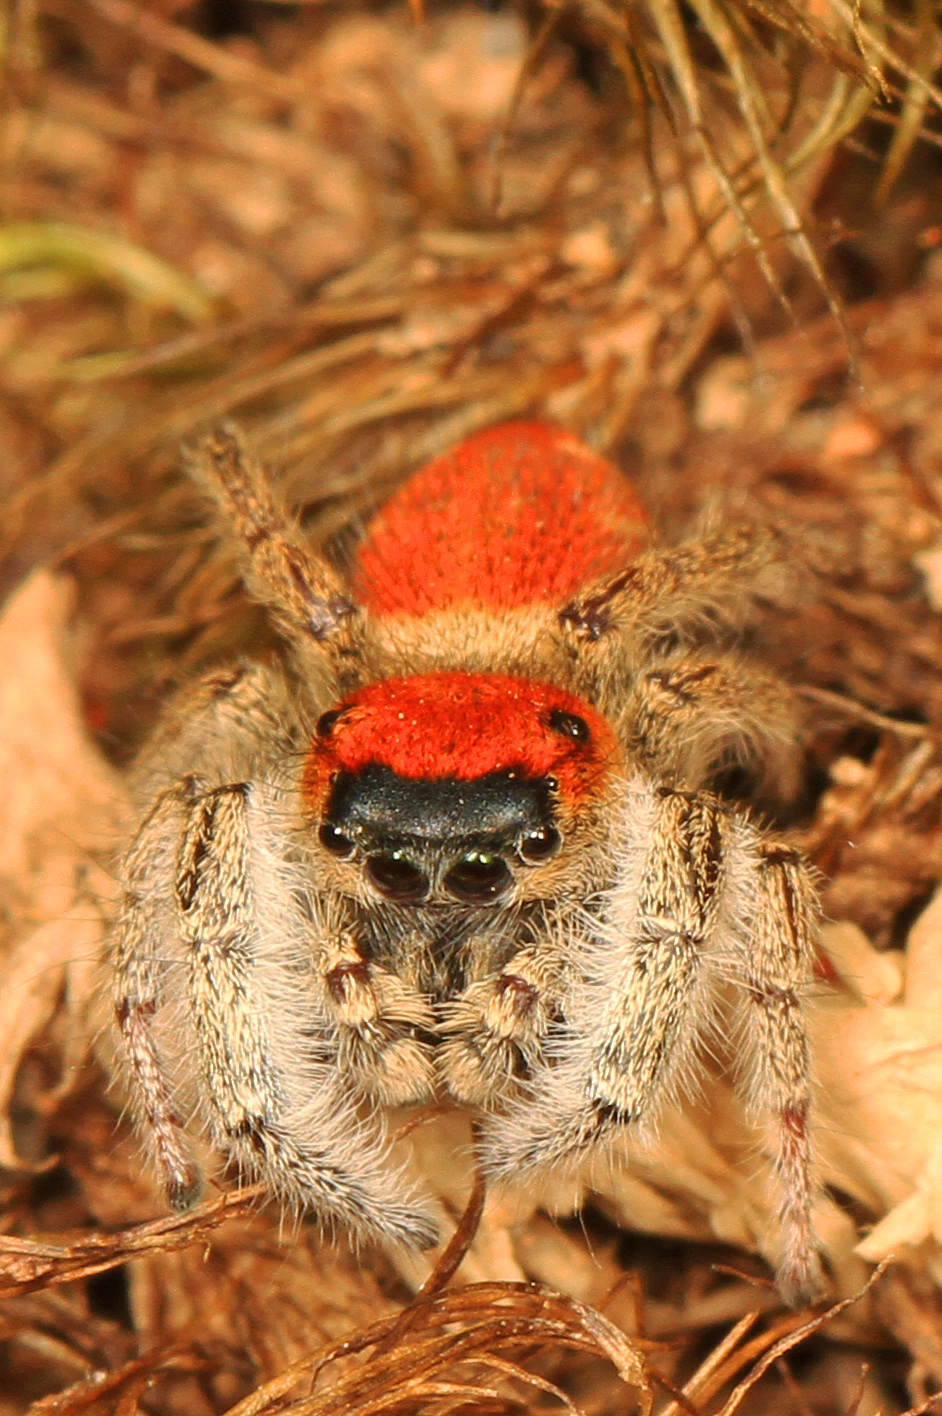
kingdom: Animalia
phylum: Arthropoda
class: Arachnida
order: Araneae
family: Salticidae
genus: Phidippus
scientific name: Phidippus whitmani
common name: Whitman's jumping spider
